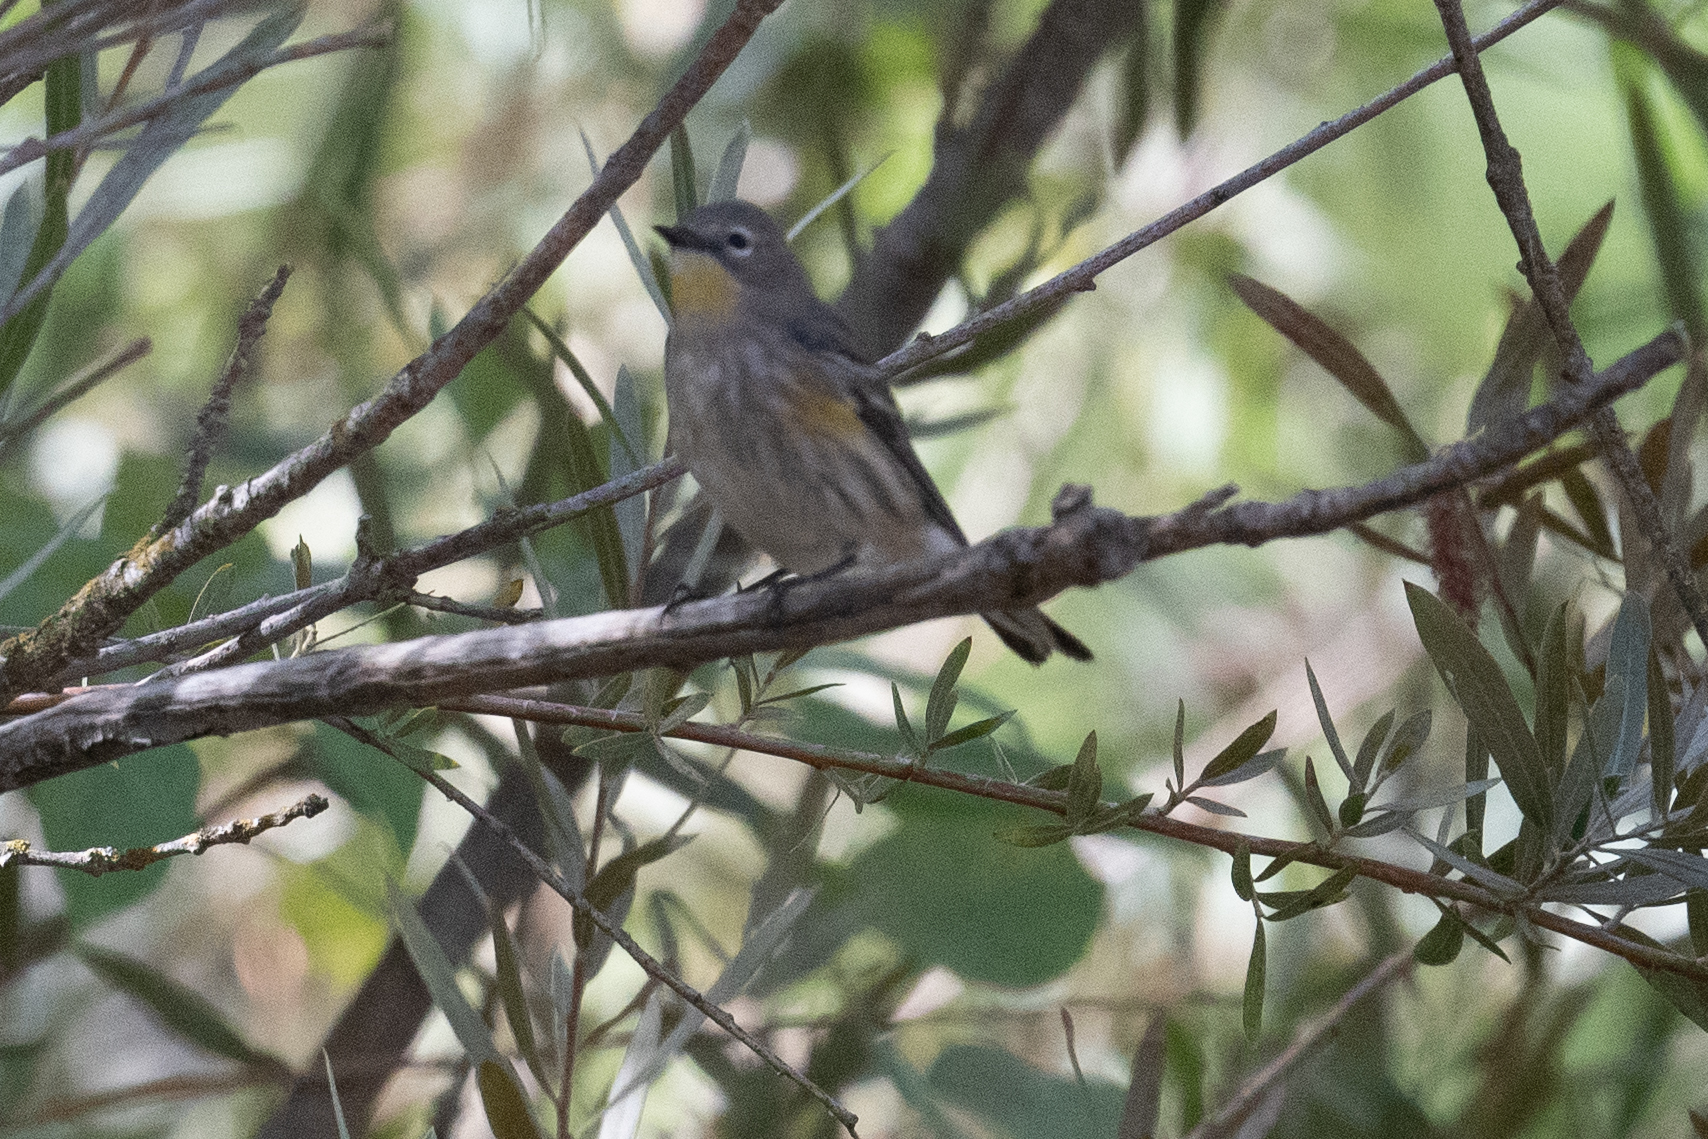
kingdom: Animalia
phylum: Chordata
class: Aves
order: Passeriformes
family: Parulidae
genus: Setophaga
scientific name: Setophaga coronata
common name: Myrtle warbler
